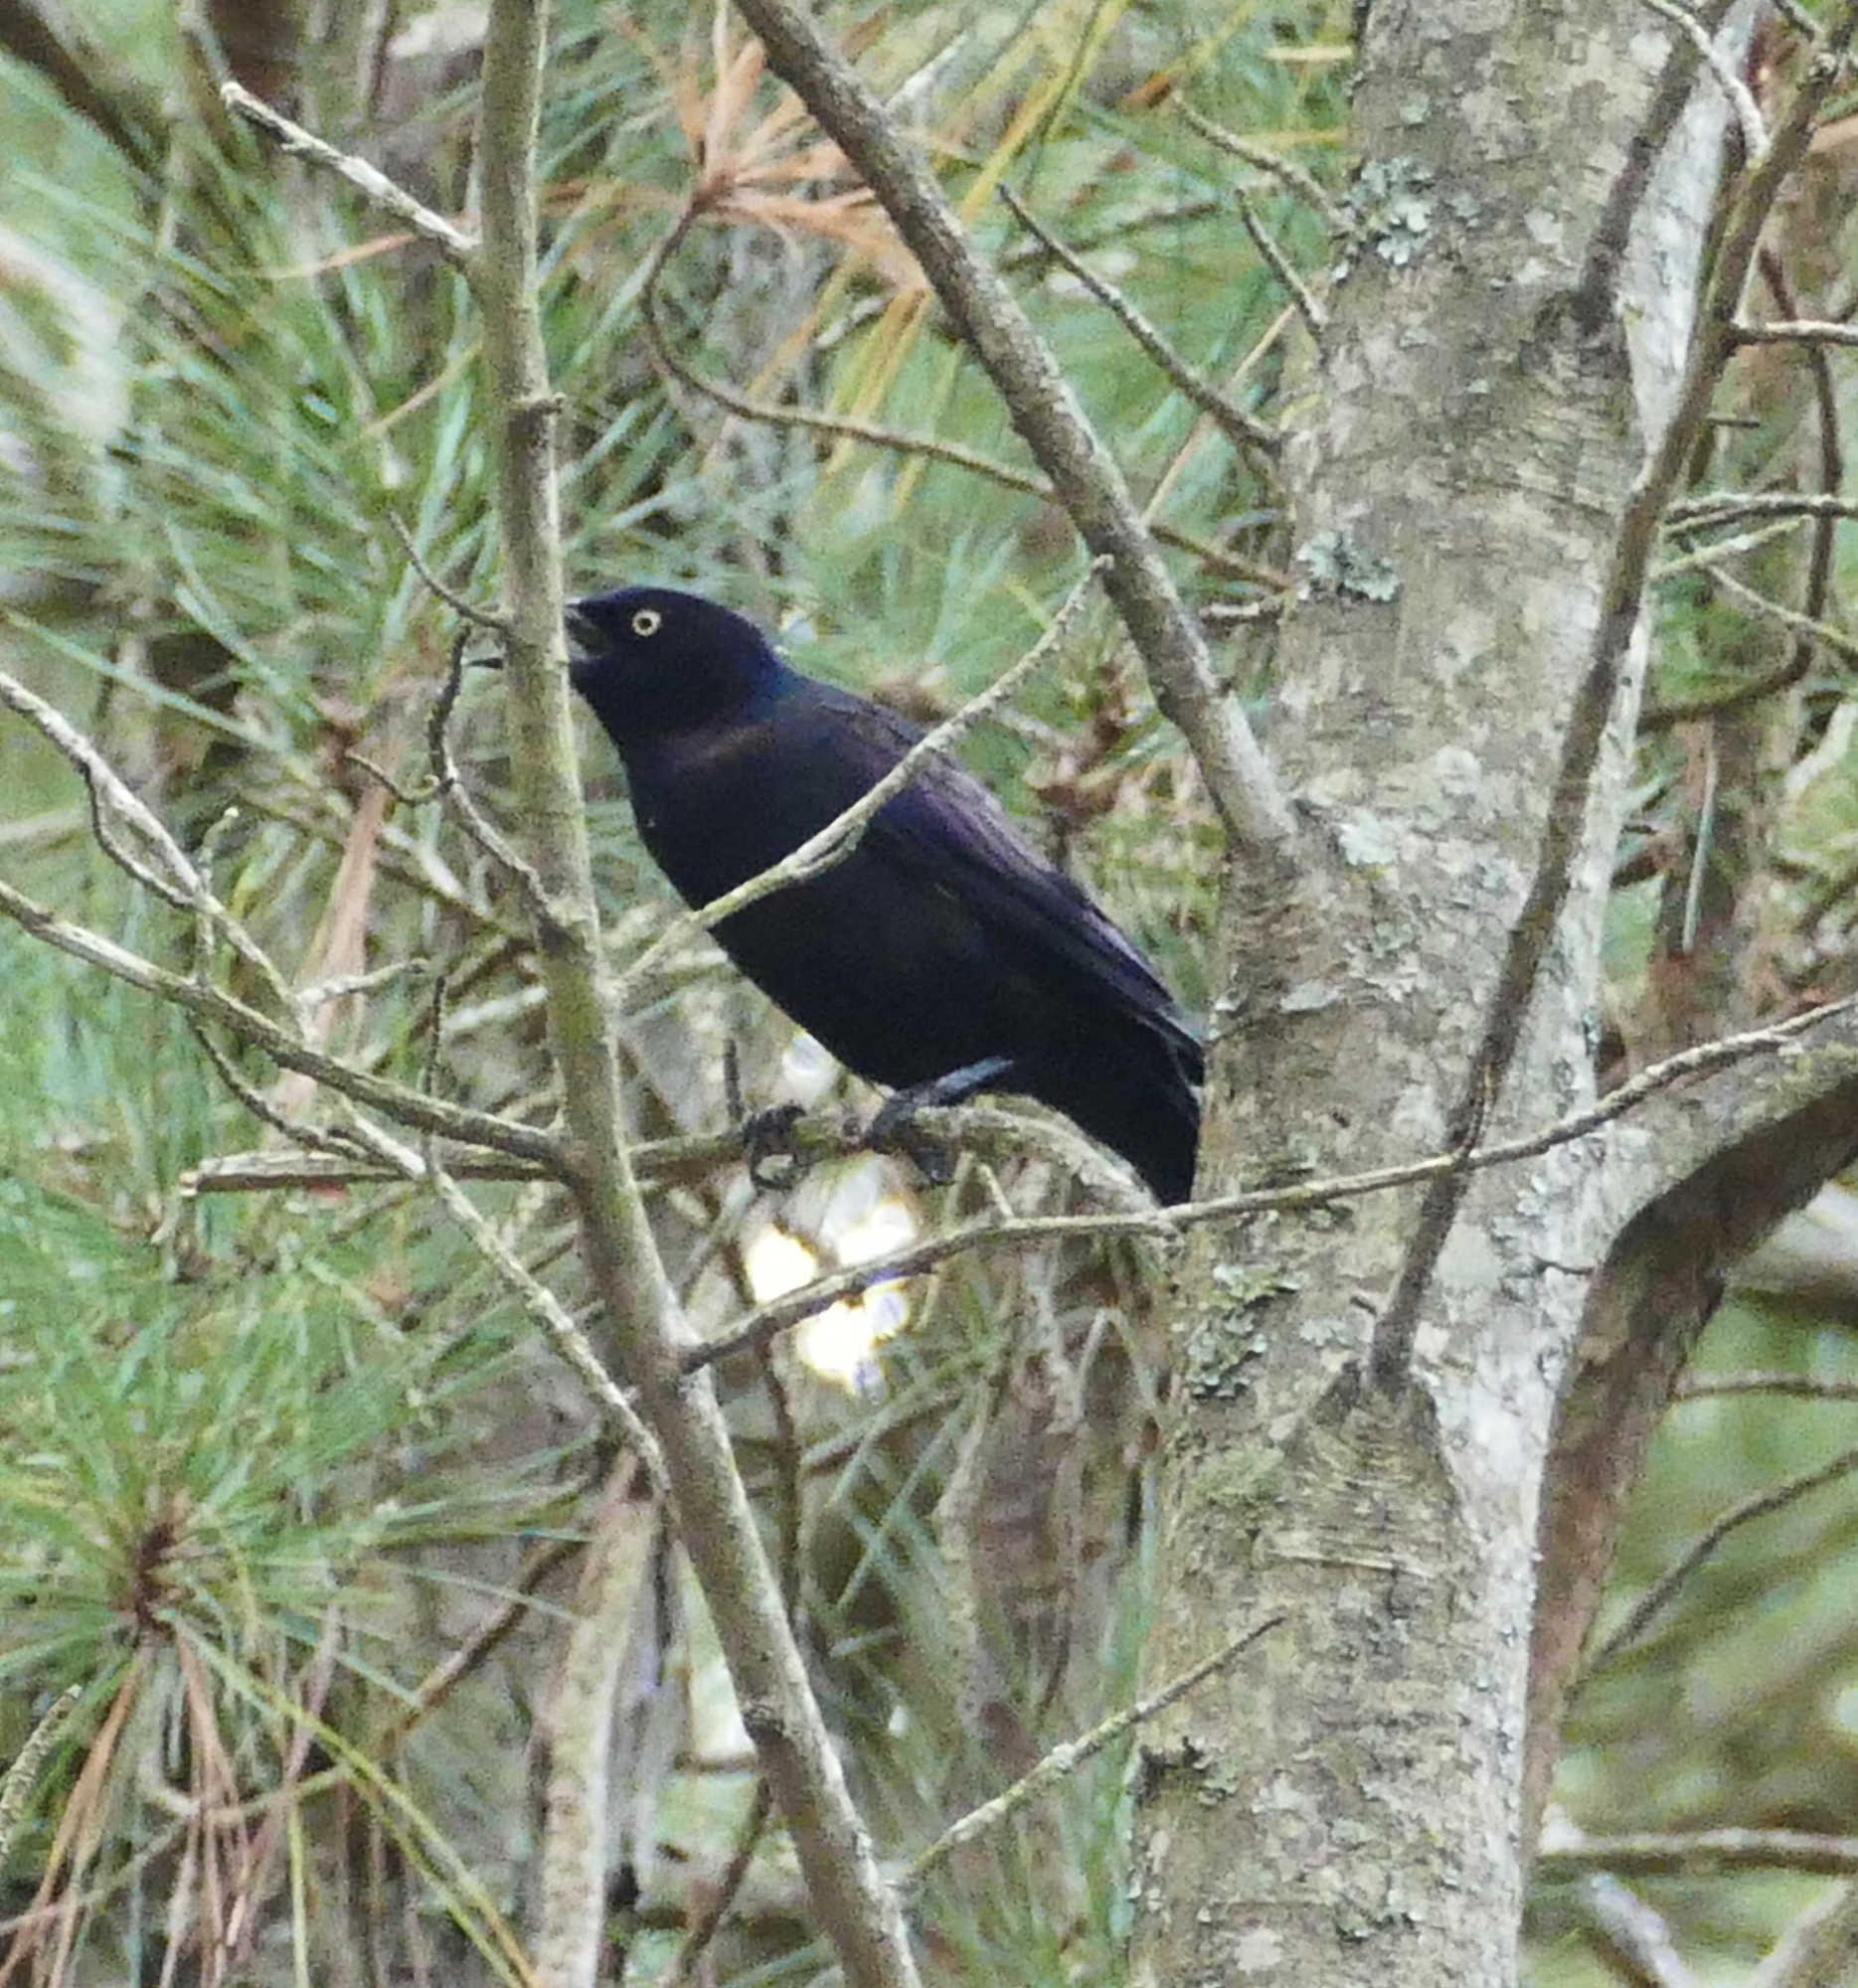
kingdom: Animalia
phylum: Chordata
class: Aves
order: Passeriformes
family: Icteridae
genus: Quiscalus
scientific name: Quiscalus quiscula
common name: Common grackle
